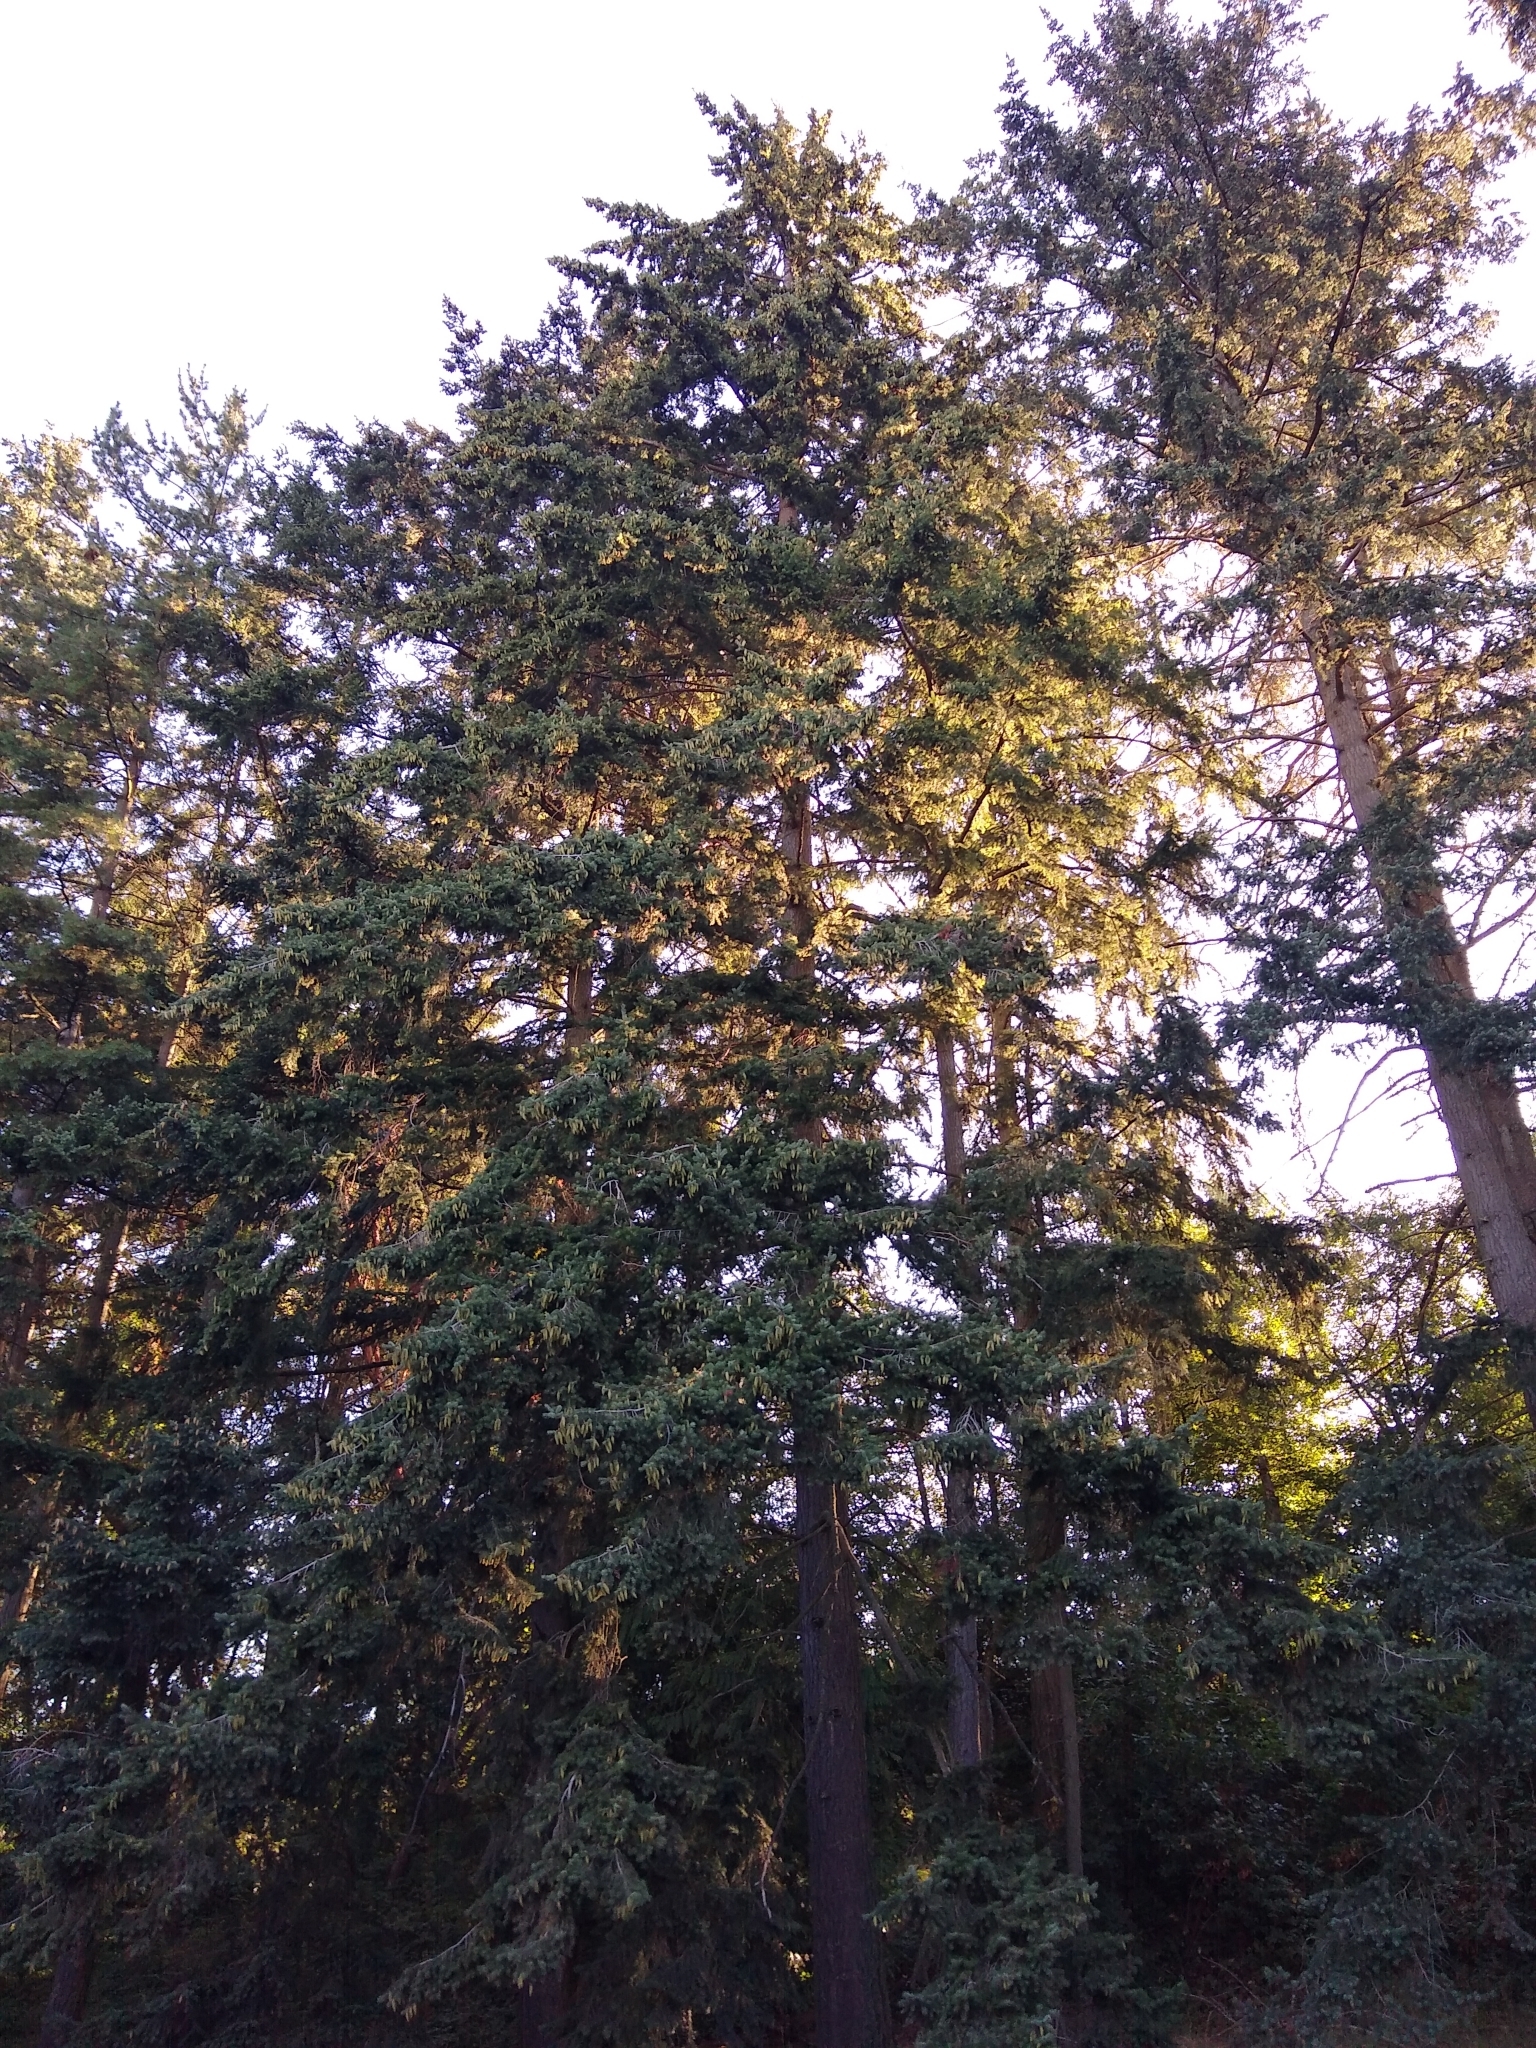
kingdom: Plantae
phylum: Tracheophyta
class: Pinopsida
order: Pinales
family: Pinaceae
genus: Pseudotsuga
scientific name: Pseudotsuga menziesii
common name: Douglas fir
